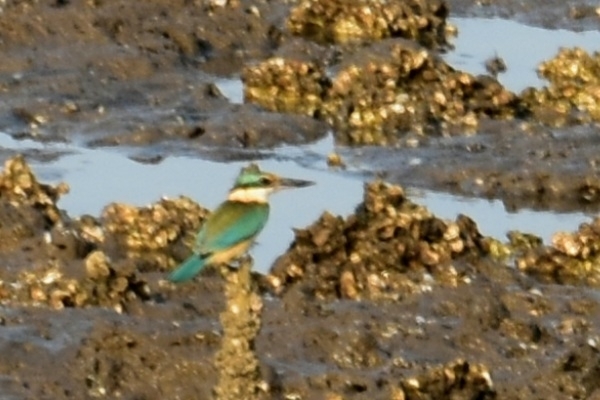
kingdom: Animalia
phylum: Chordata
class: Aves
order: Coraciiformes
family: Alcedinidae
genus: Todiramphus
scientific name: Todiramphus sanctus
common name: Sacred kingfisher
